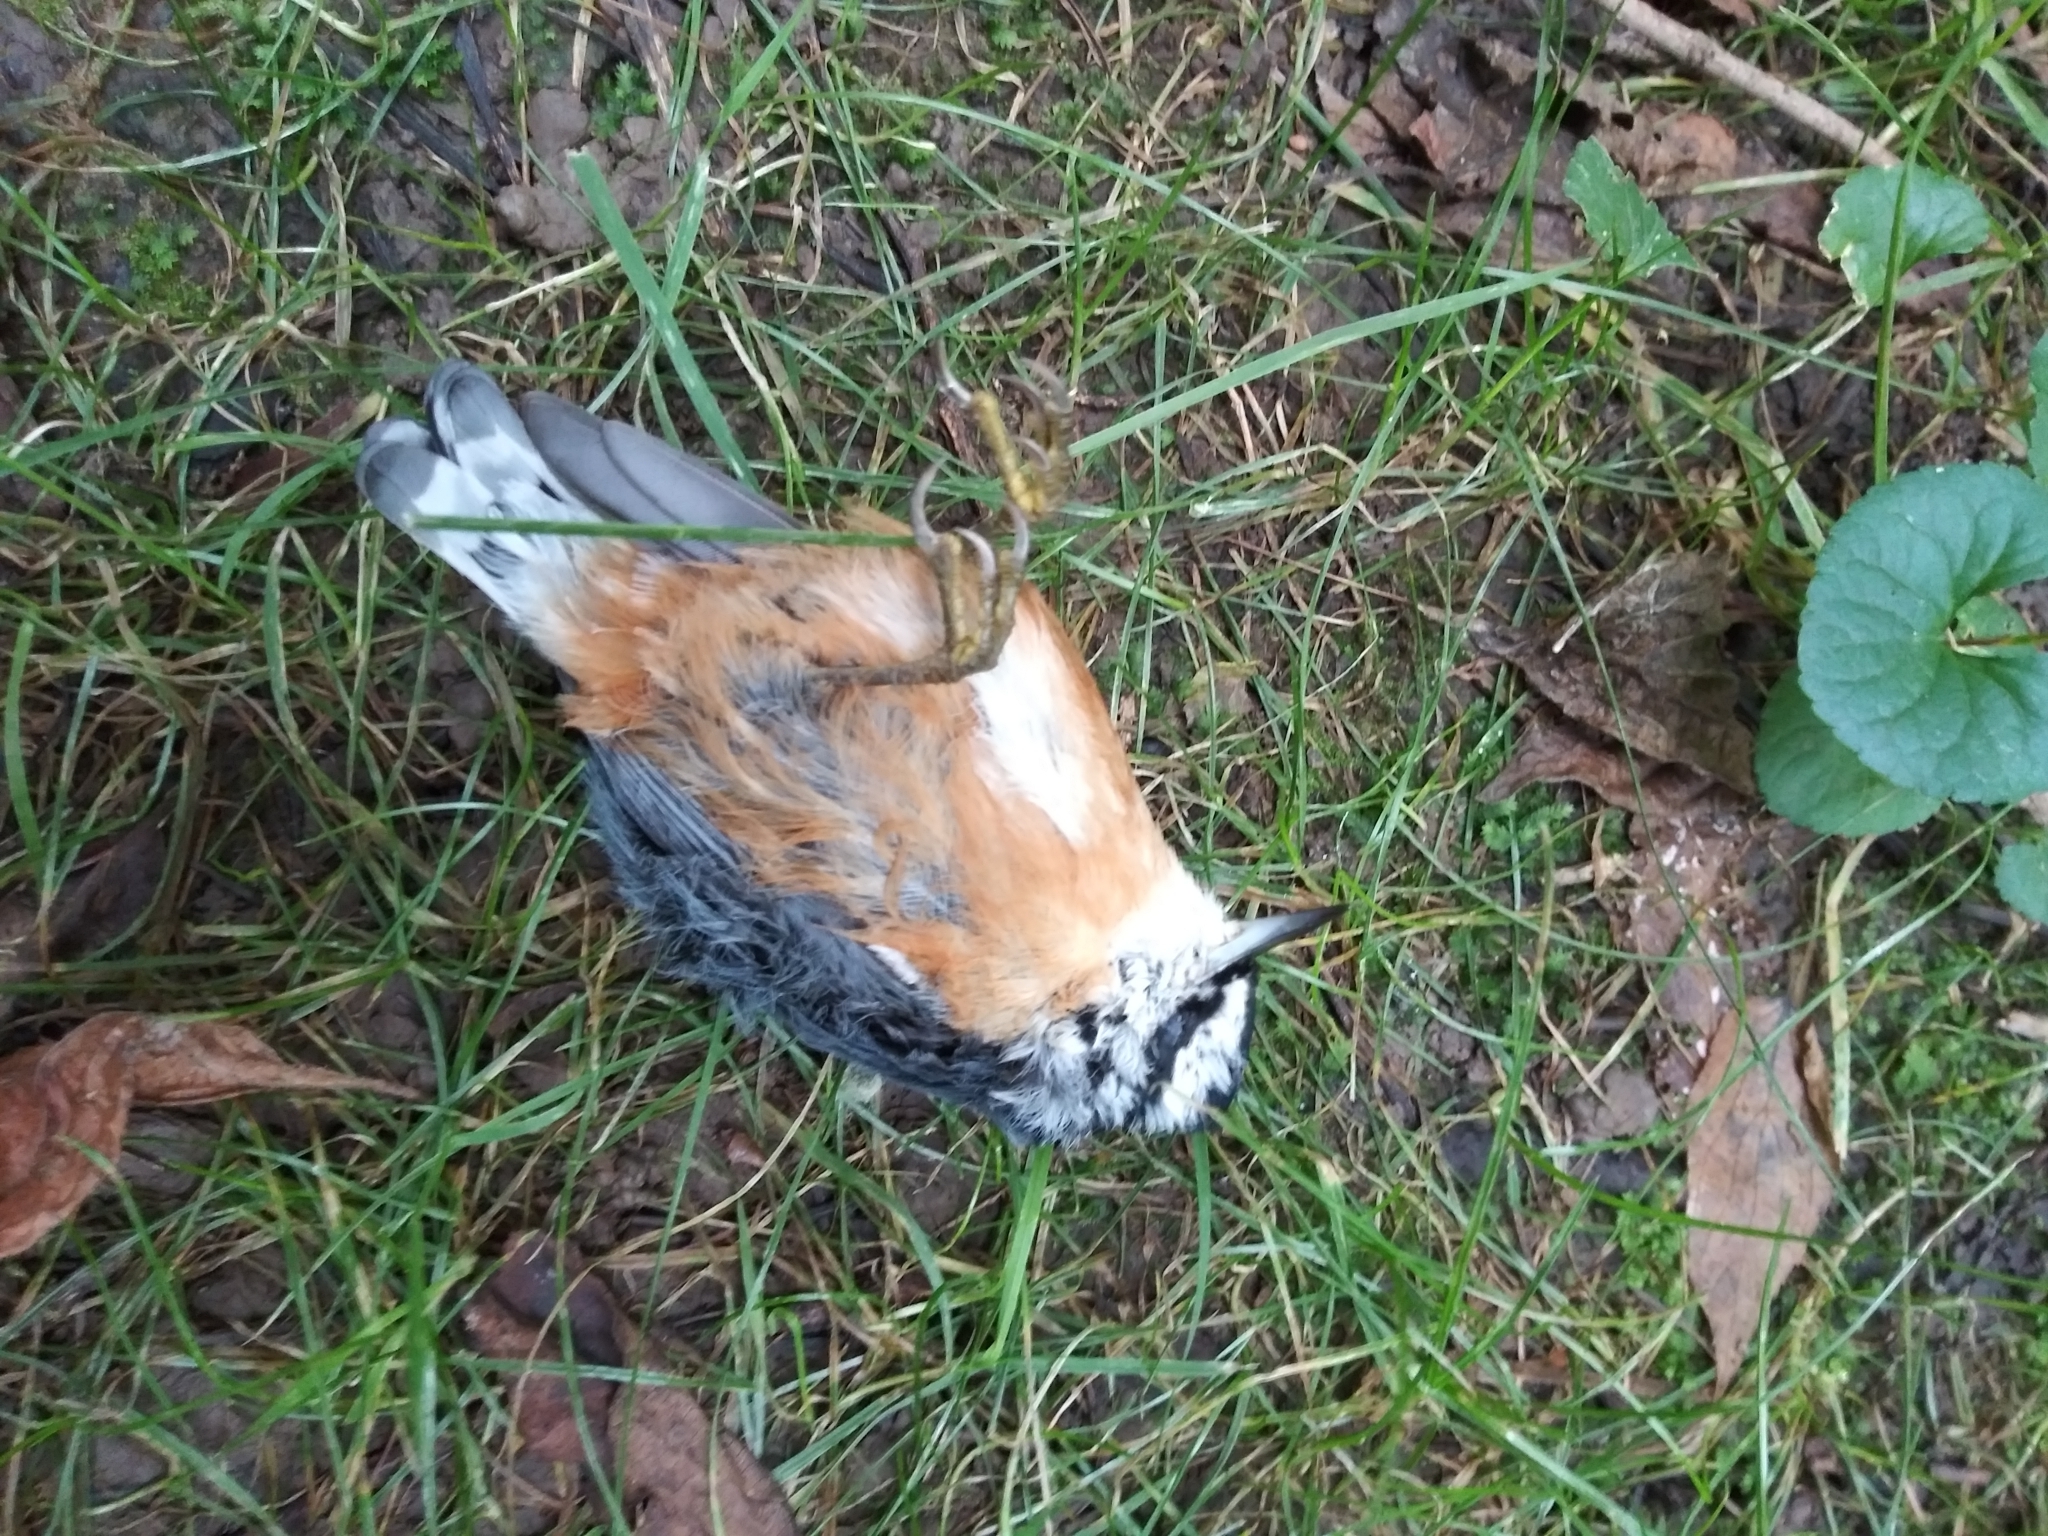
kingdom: Animalia
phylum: Chordata
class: Aves
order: Passeriformes
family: Sittidae
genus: Sitta
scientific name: Sitta canadensis
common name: Red-breasted nuthatch
